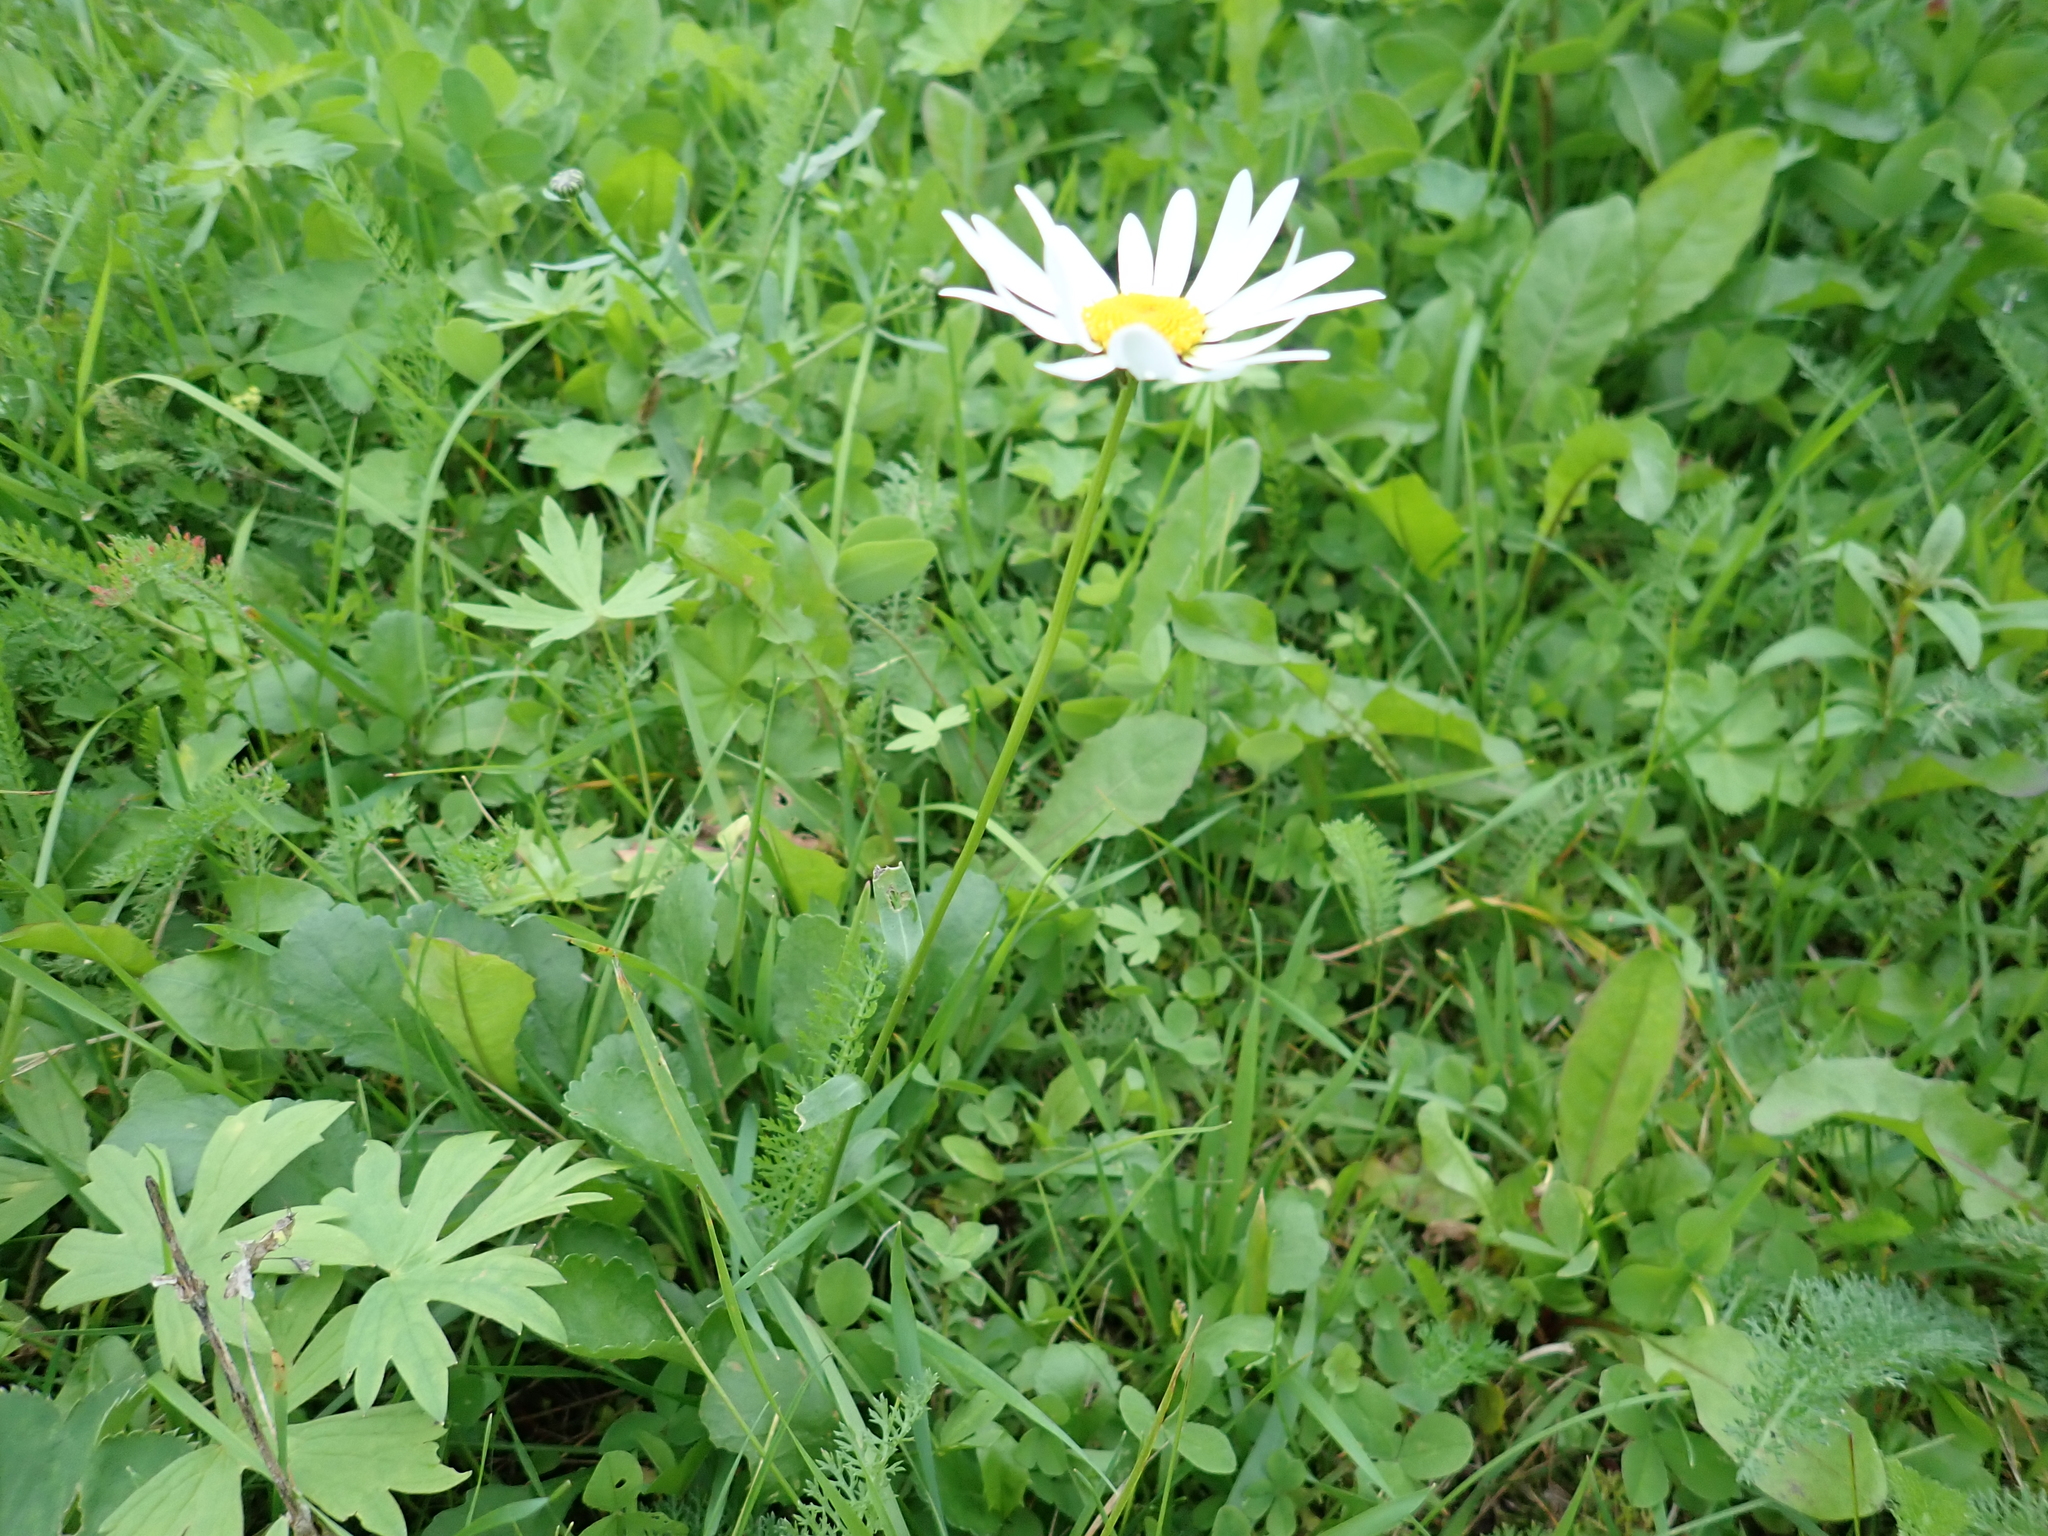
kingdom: Plantae
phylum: Tracheophyta
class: Magnoliopsida
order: Asterales
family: Asteraceae
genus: Leucanthemum
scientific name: Leucanthemum vulgare
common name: Oxeye daisy
